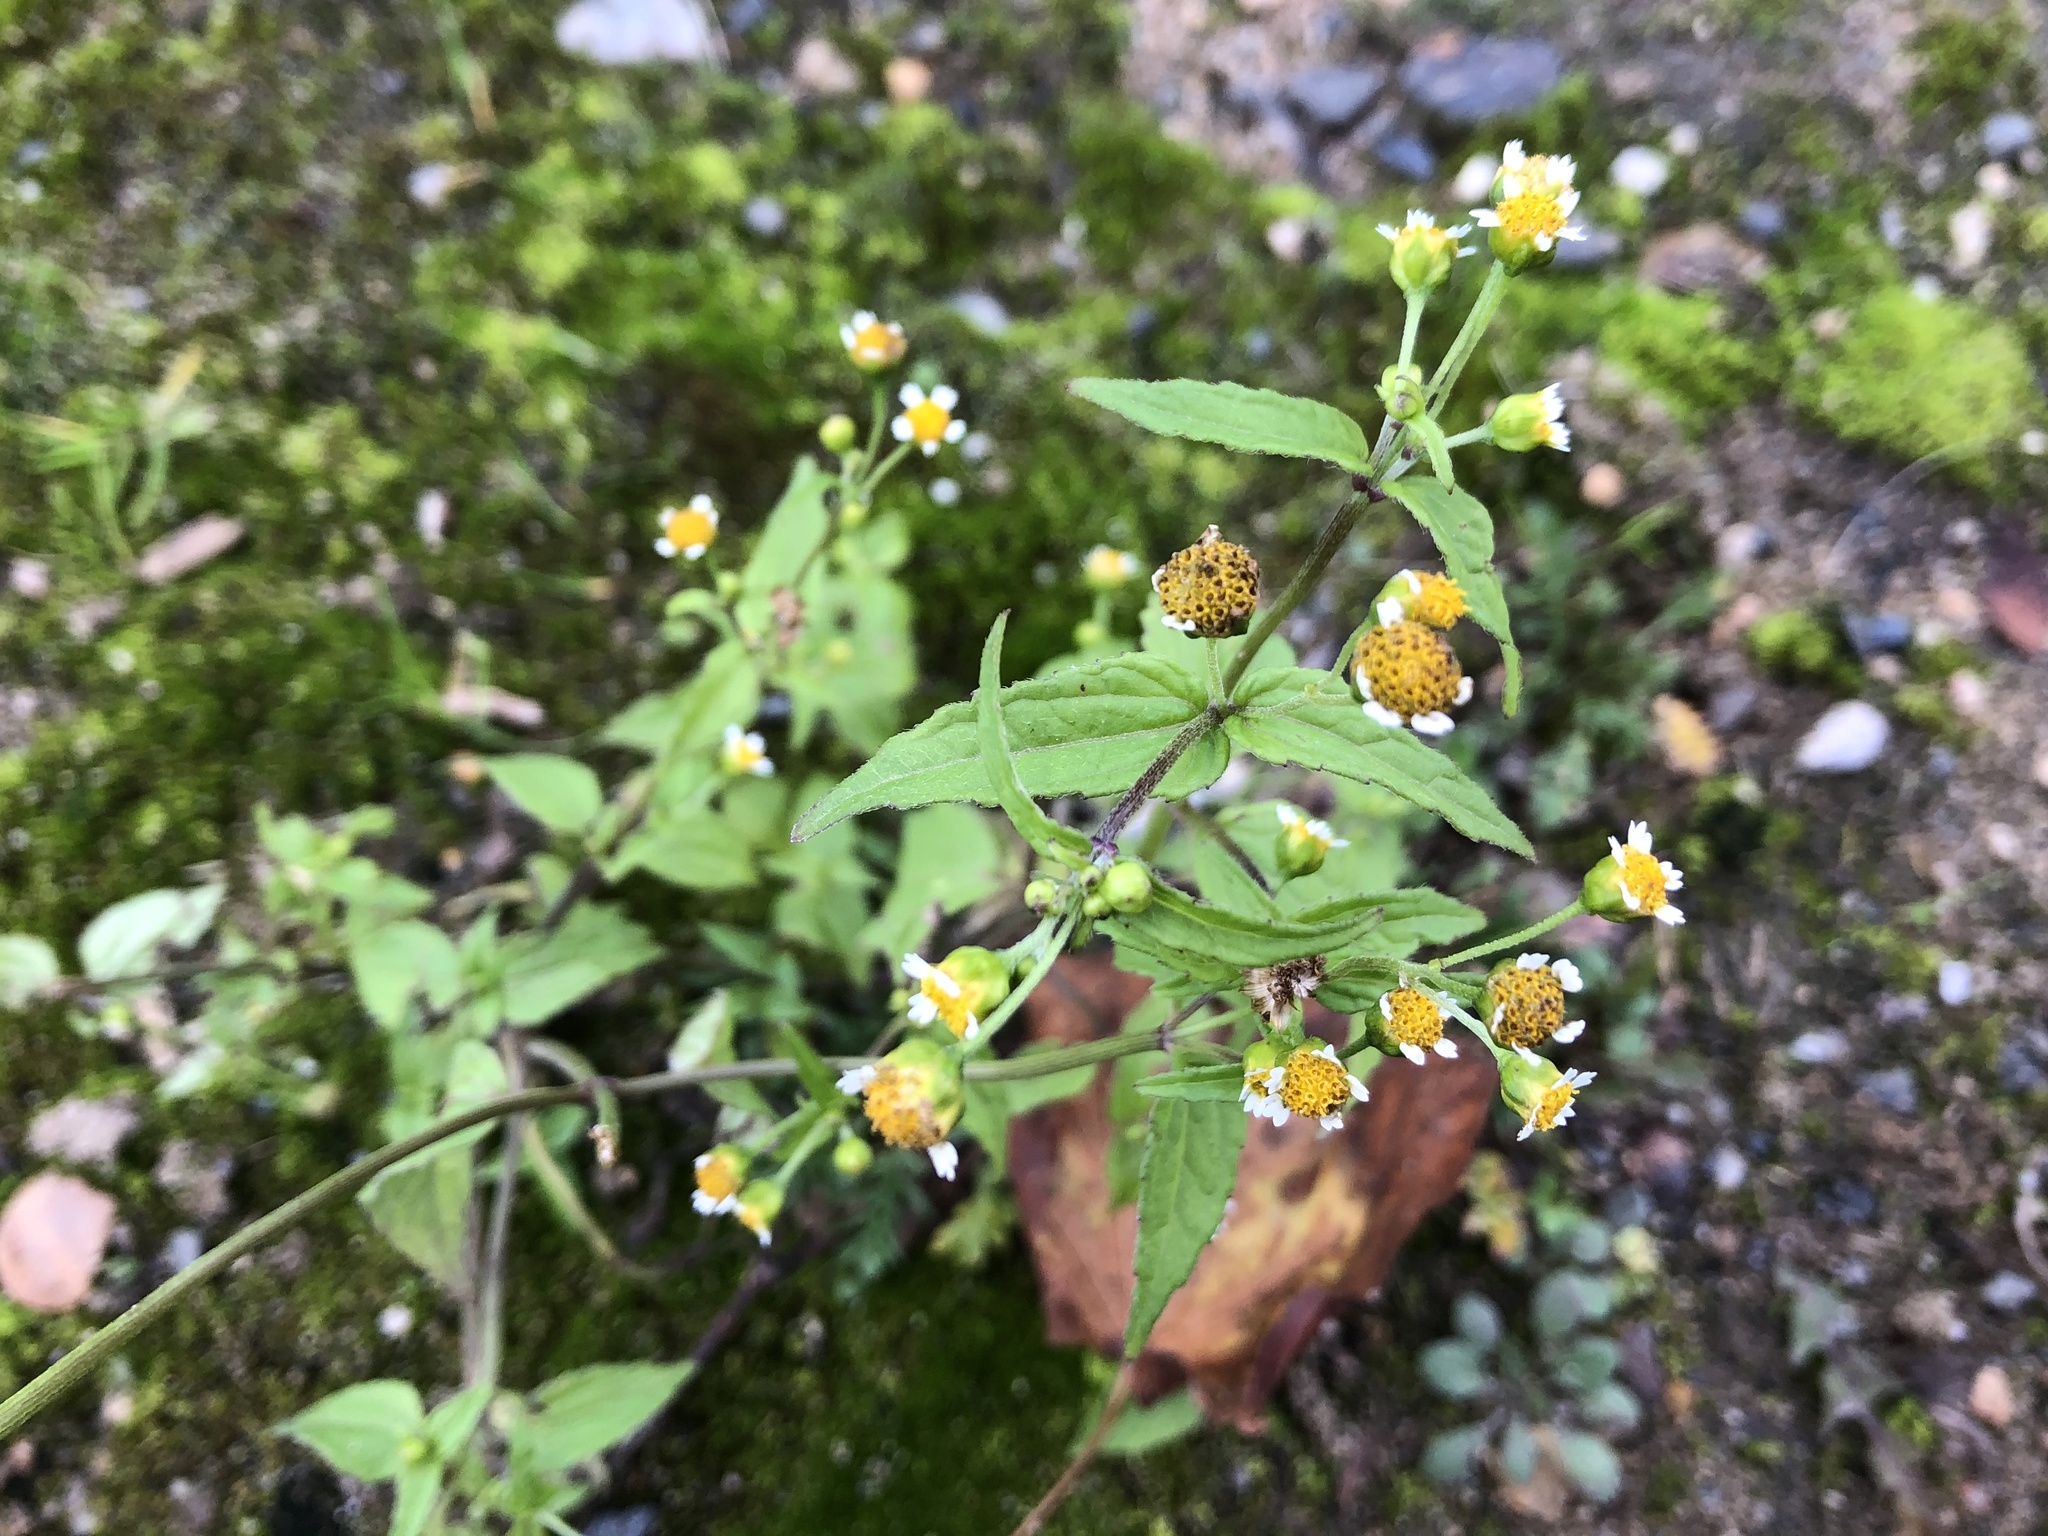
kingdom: Plantae
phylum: Tracheophyta
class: Magnoliopsida
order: Asterales
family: Asteraceae
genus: Galinsoga
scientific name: Galinsoga parviflora
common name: Gallant soldier
